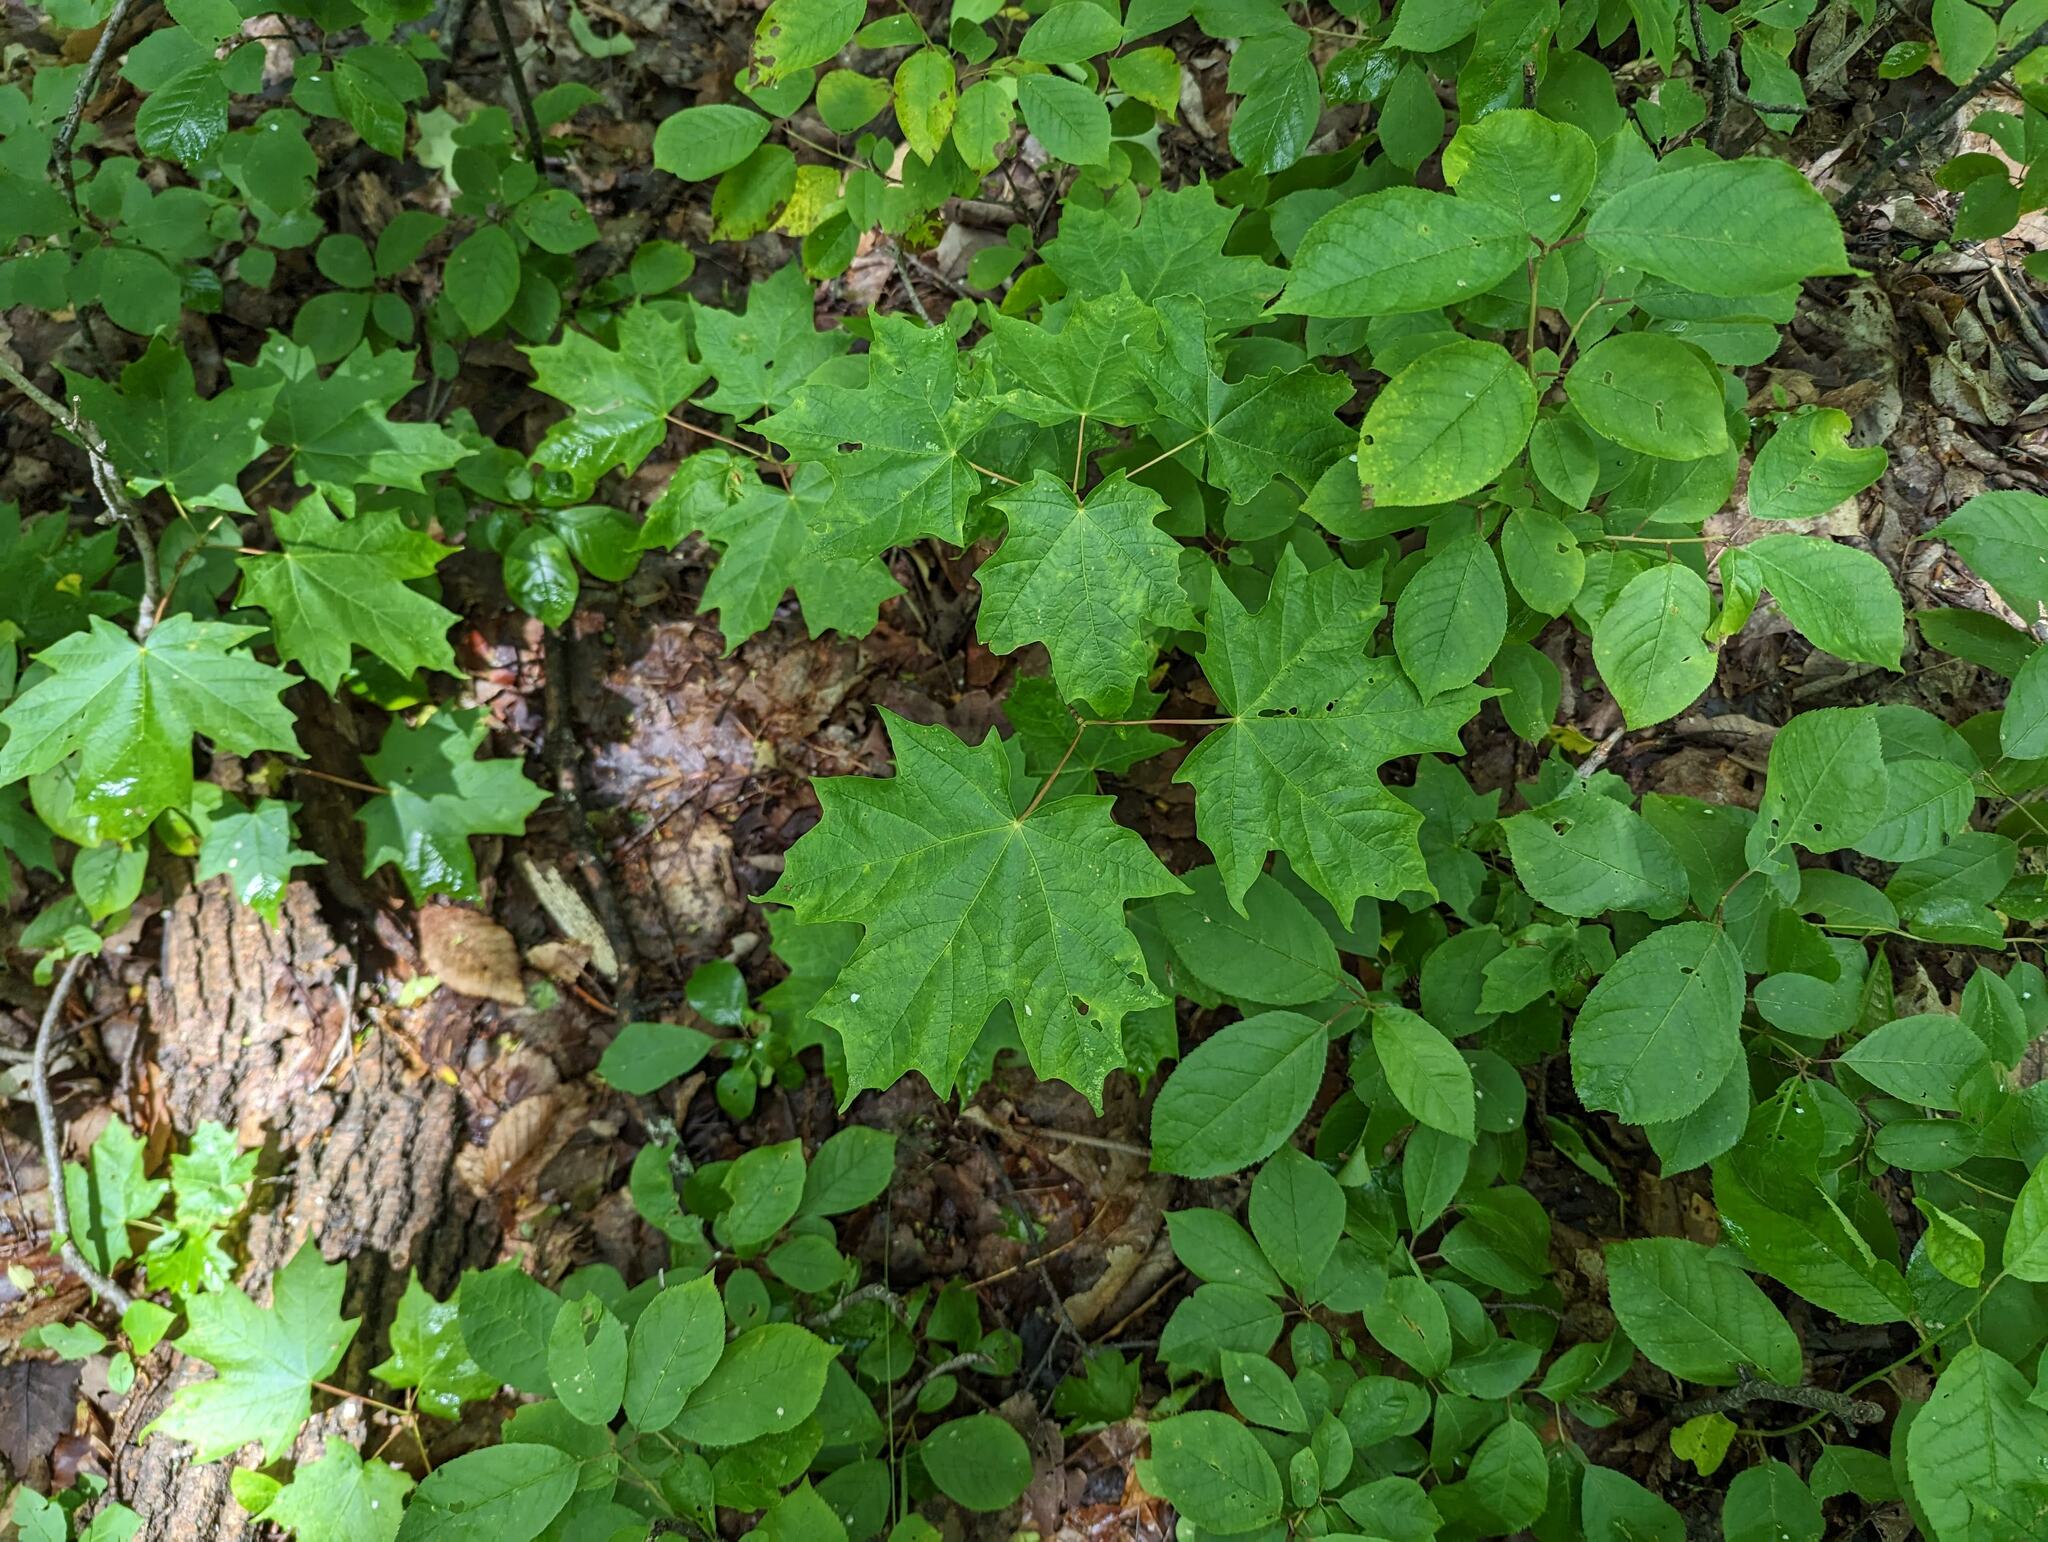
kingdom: Plantae
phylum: Tracheophyta
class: Magnoliopsida
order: Sapindales
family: Sapindaceae
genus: Acer
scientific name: Acer saccharum
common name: Sugar maple
